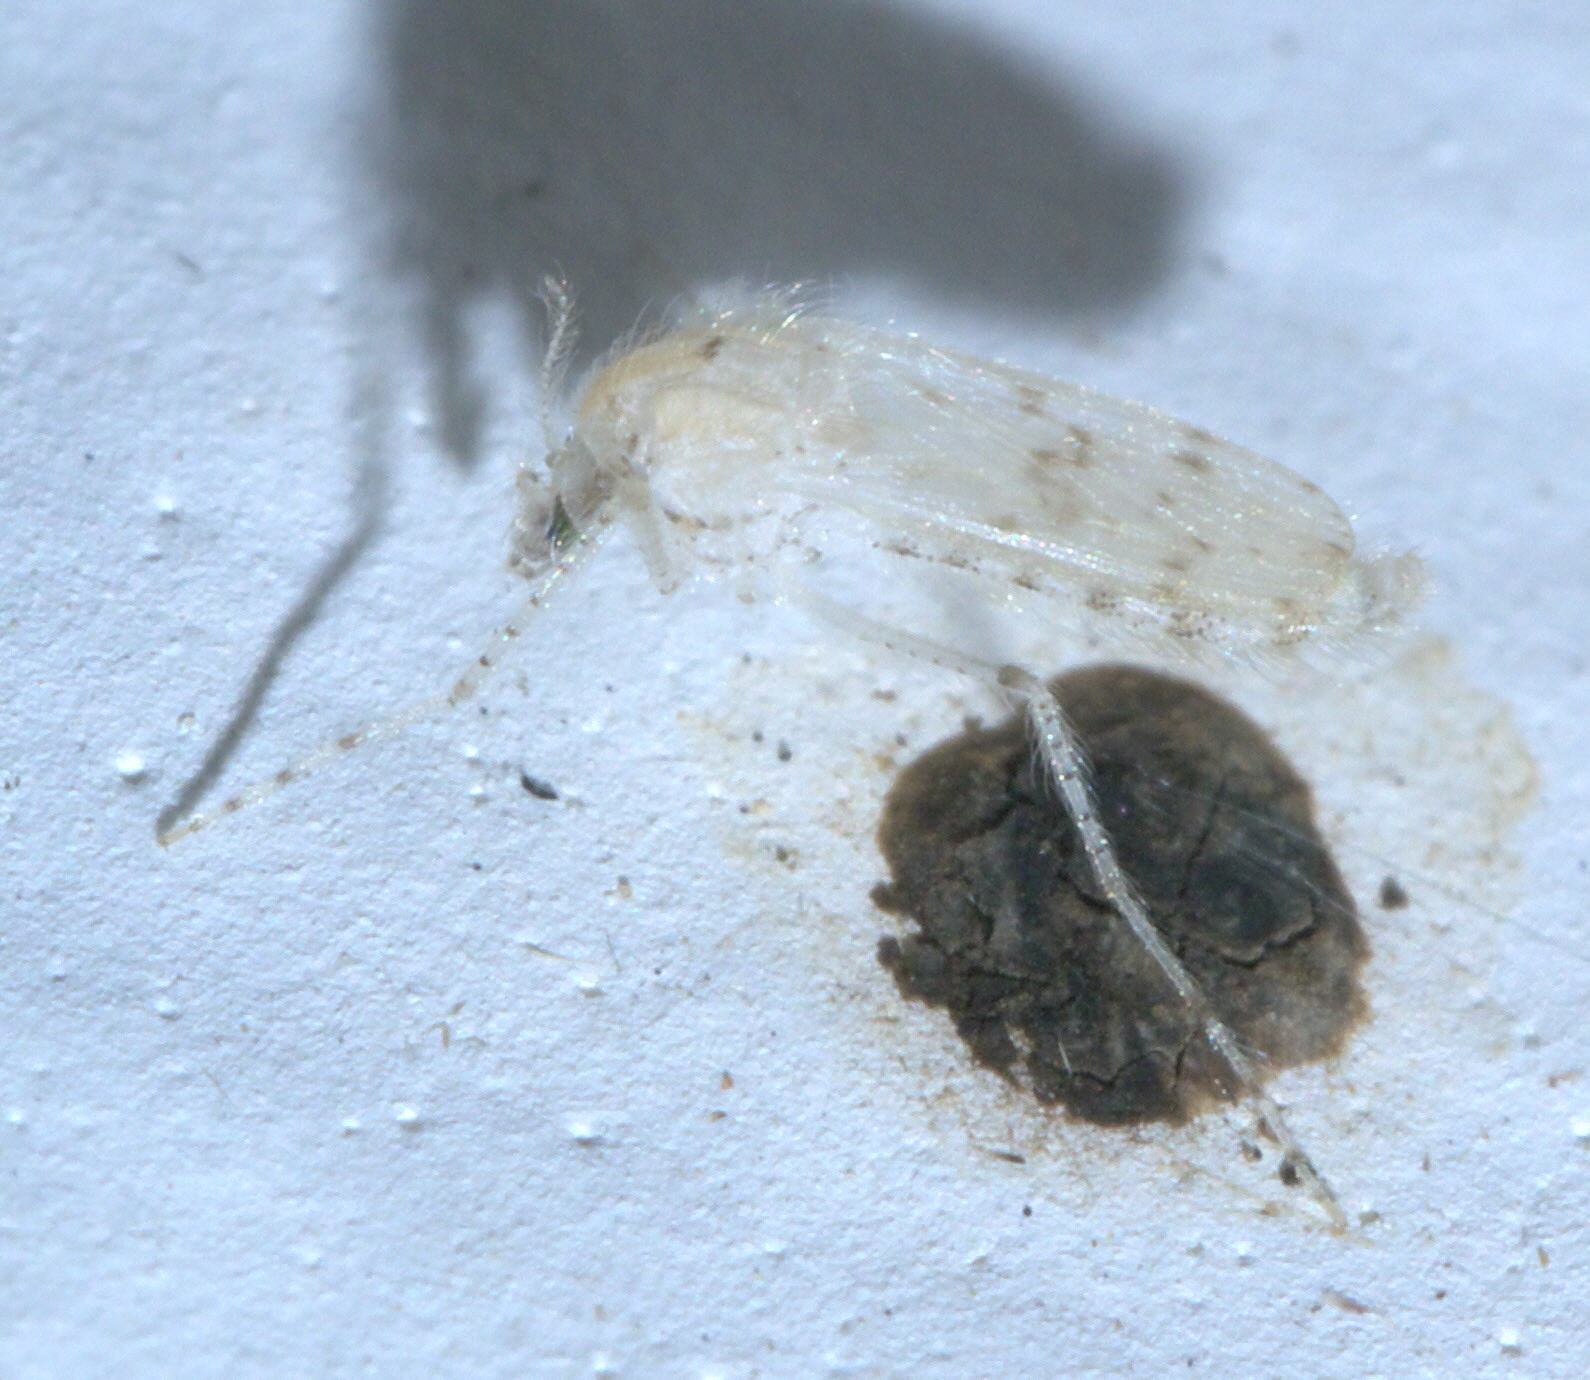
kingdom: Animalia
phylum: Arthropoda
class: Insecta
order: Diptera
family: Chaoboridae
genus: Chaoborus
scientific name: Chaoborus maculipes
